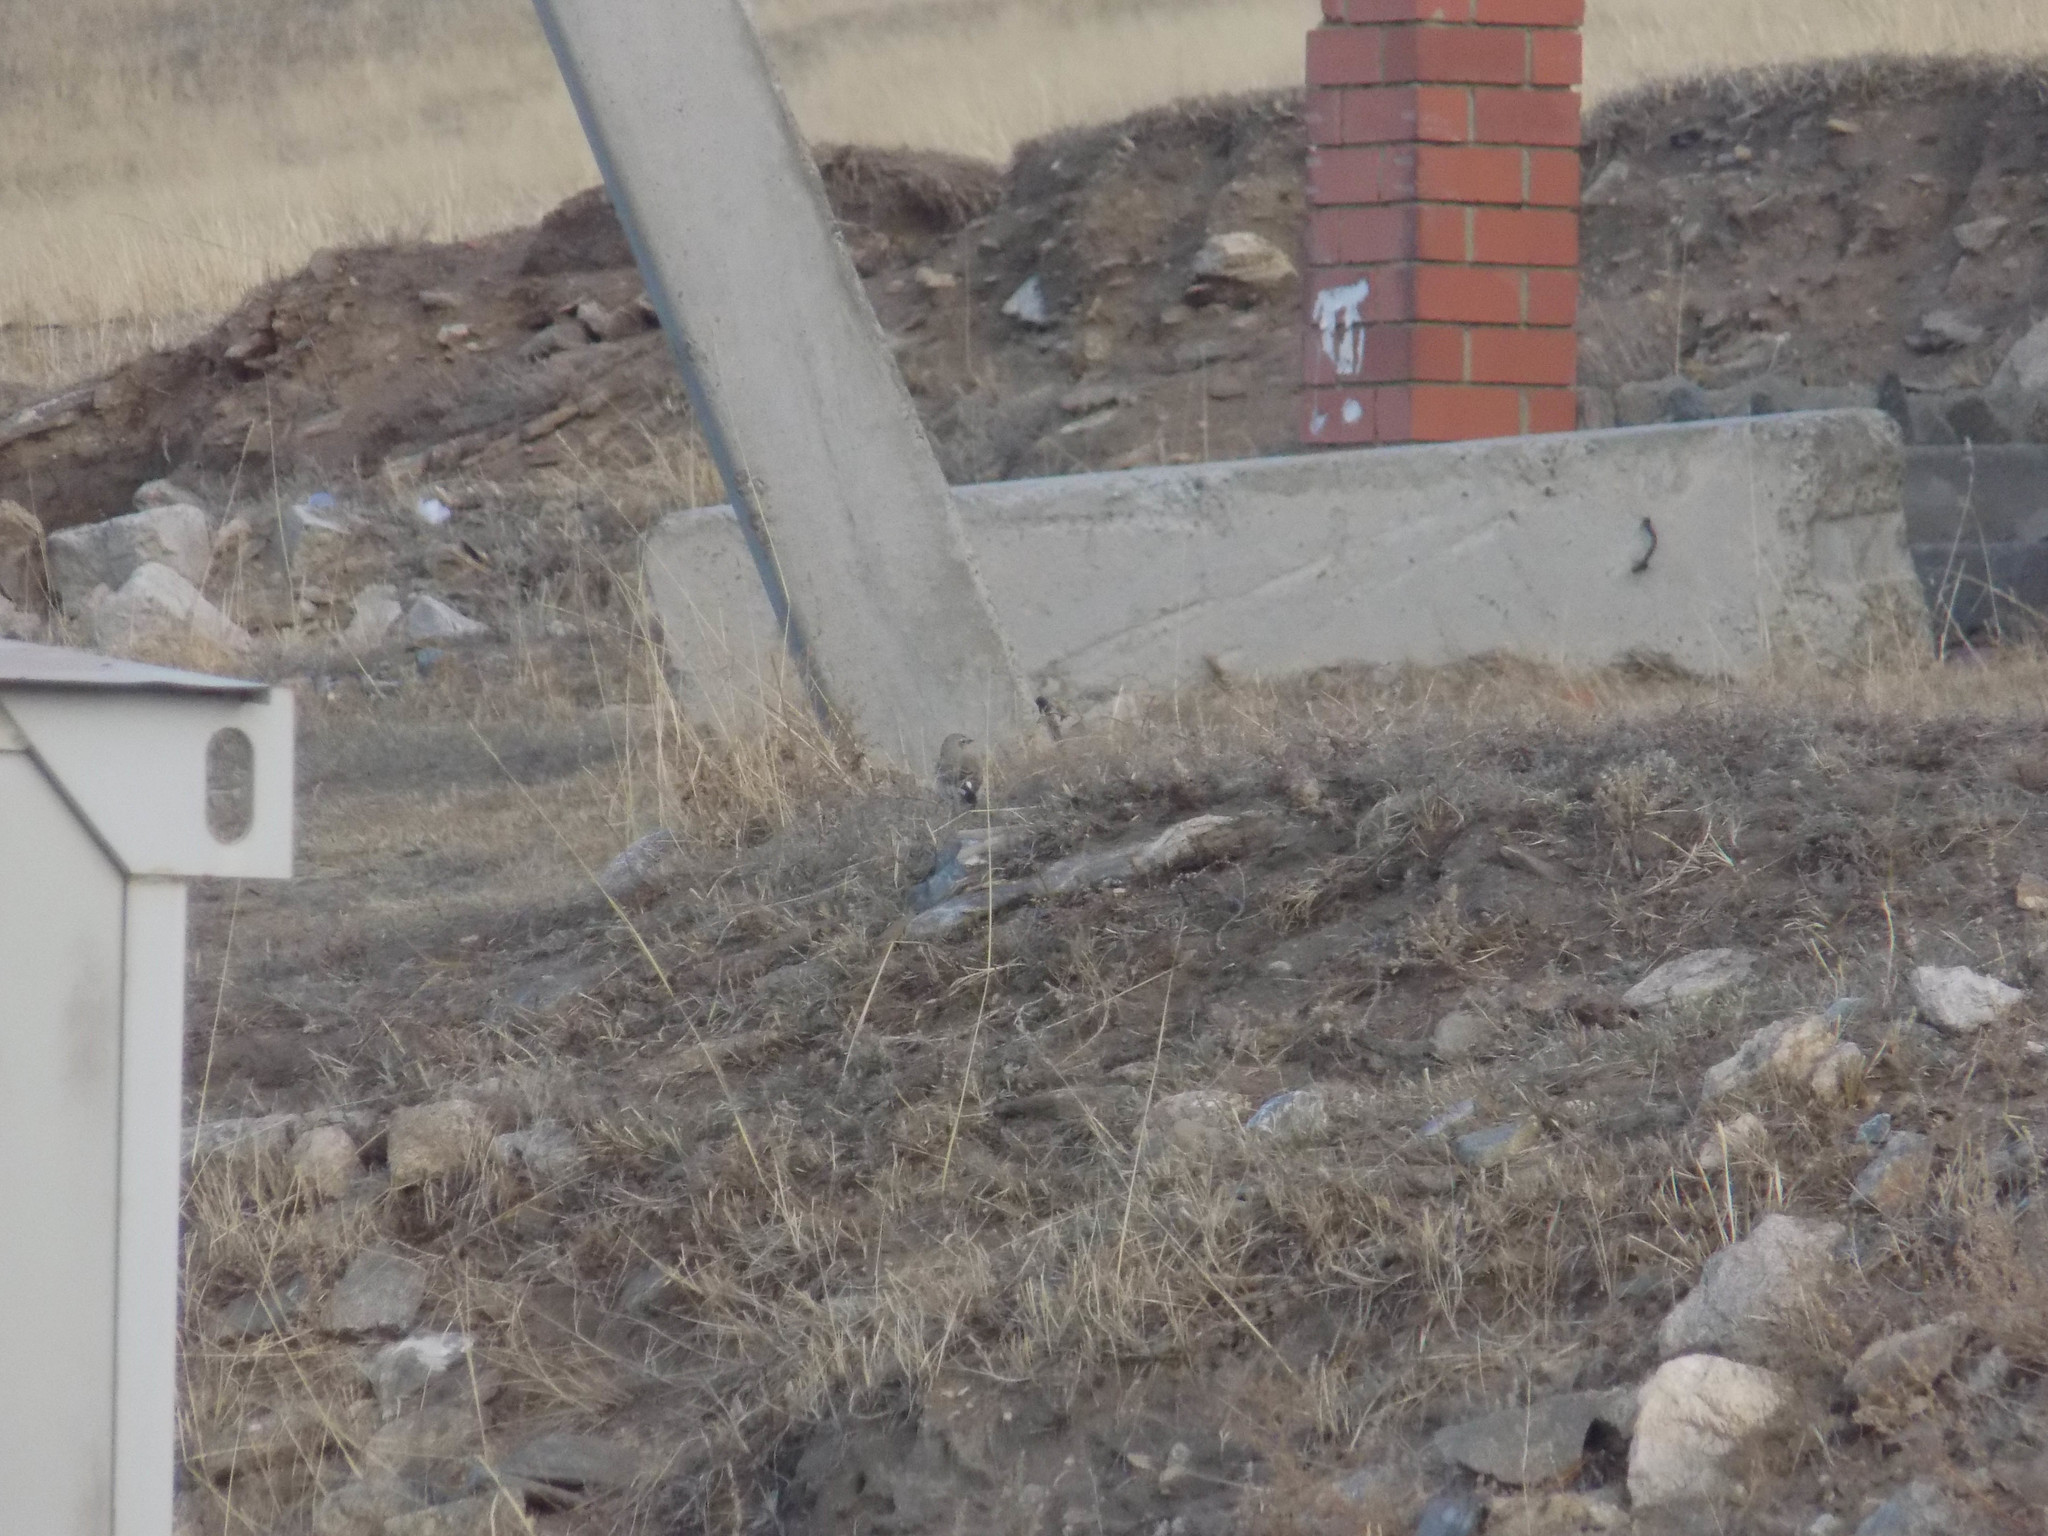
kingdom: Animalia
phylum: Chordata
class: Aves
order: Passeriformes
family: Muscicapidae
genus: Oenanthe
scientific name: Oenanthe isabellina
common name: Isabelline wheatear
